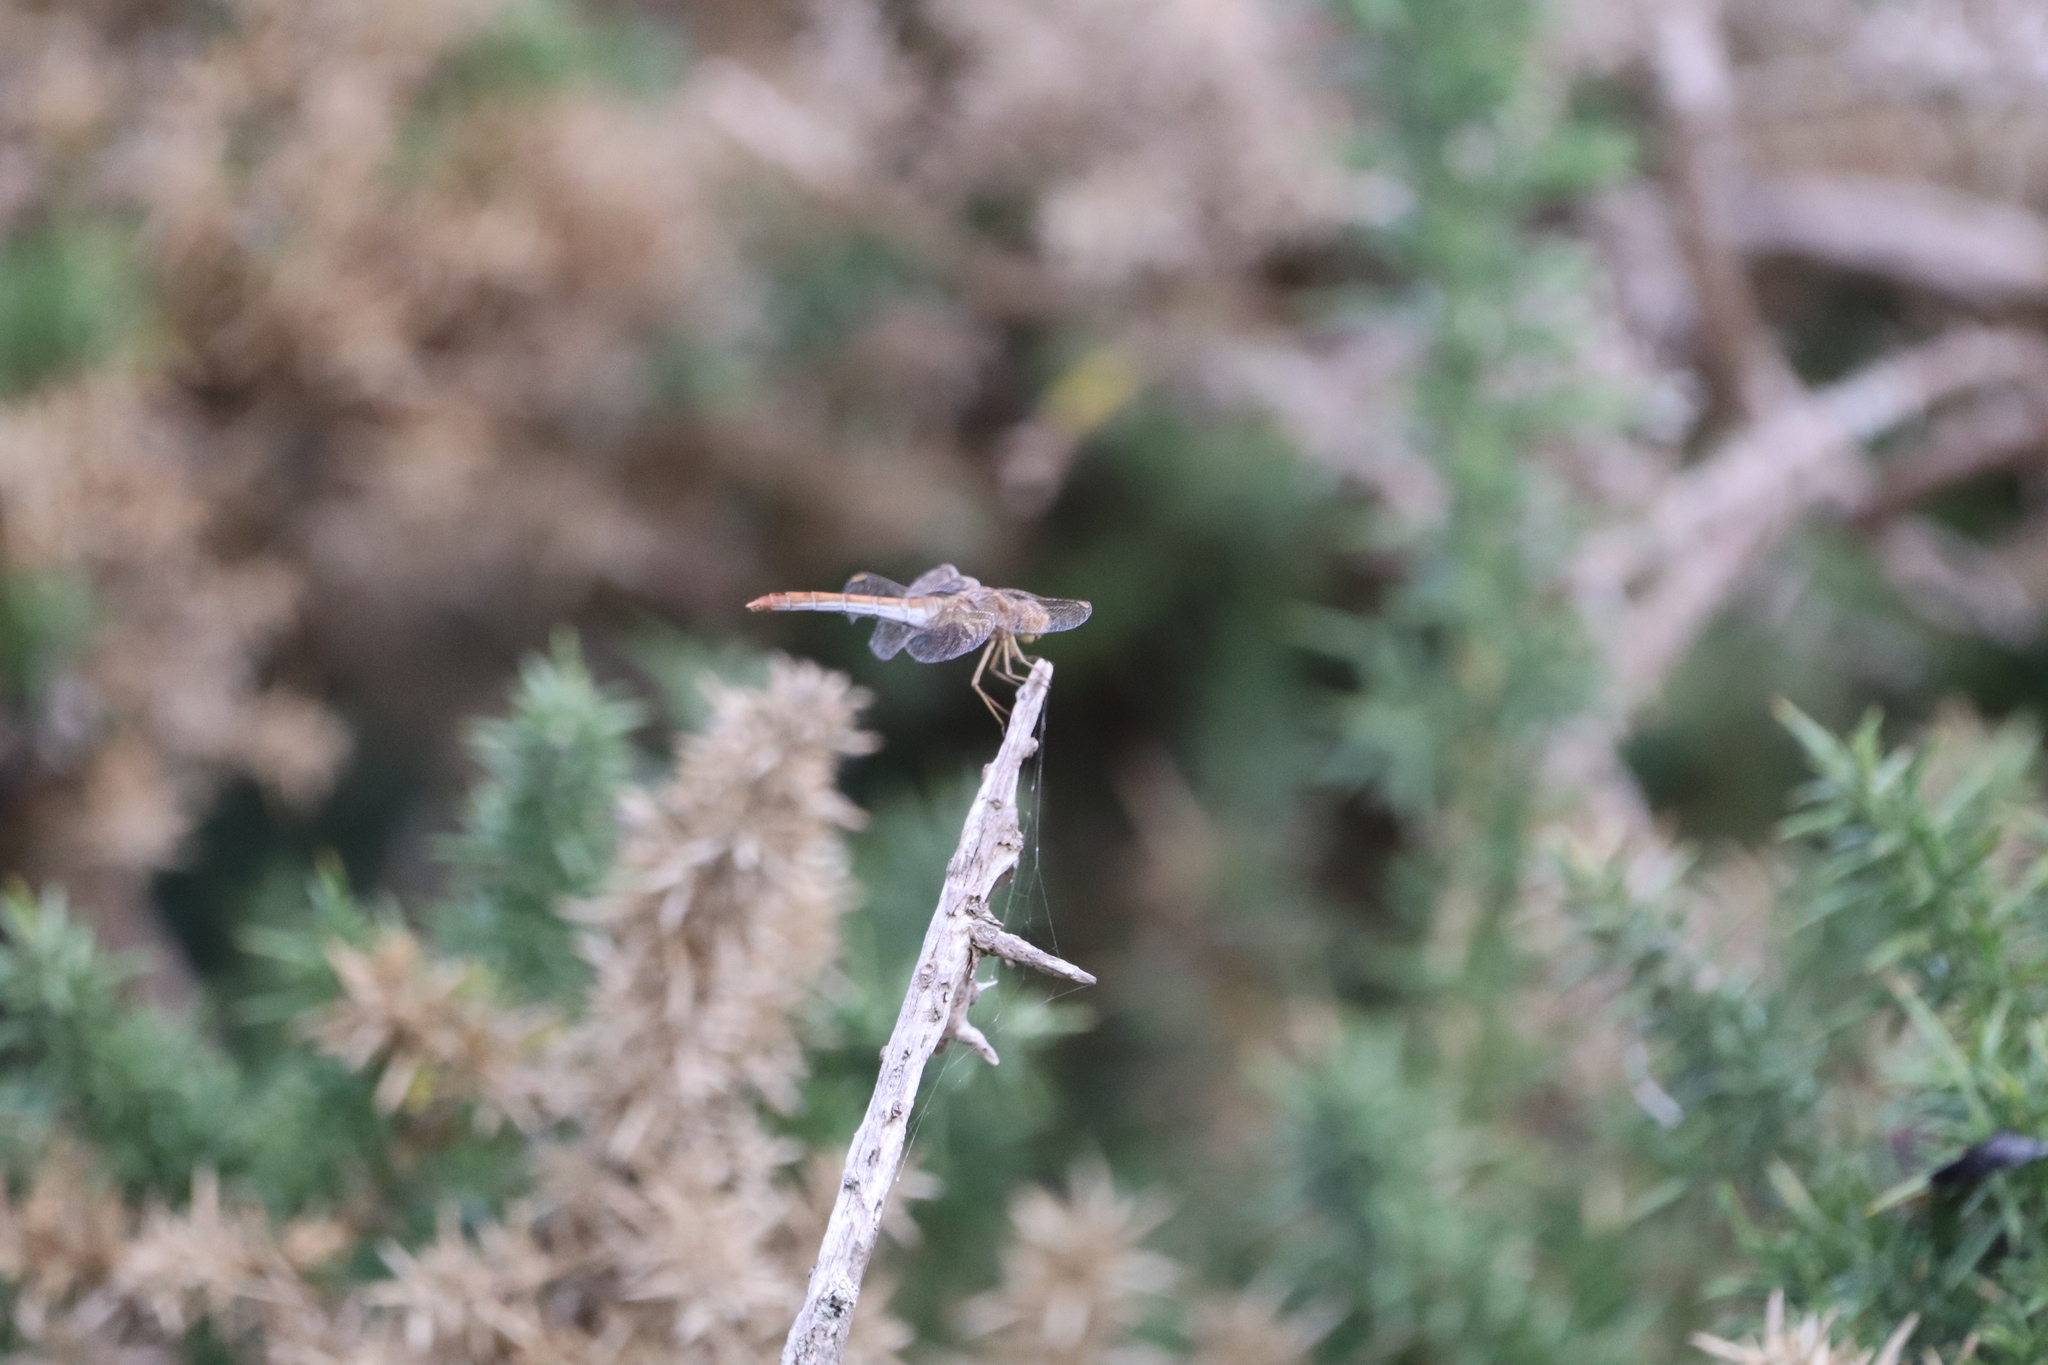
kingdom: Animalia
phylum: Arthropoda
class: Insecta
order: Odonata
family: Libellulidae
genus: Sympetrum
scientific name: Sympetrum meridionale
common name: Southern darter
